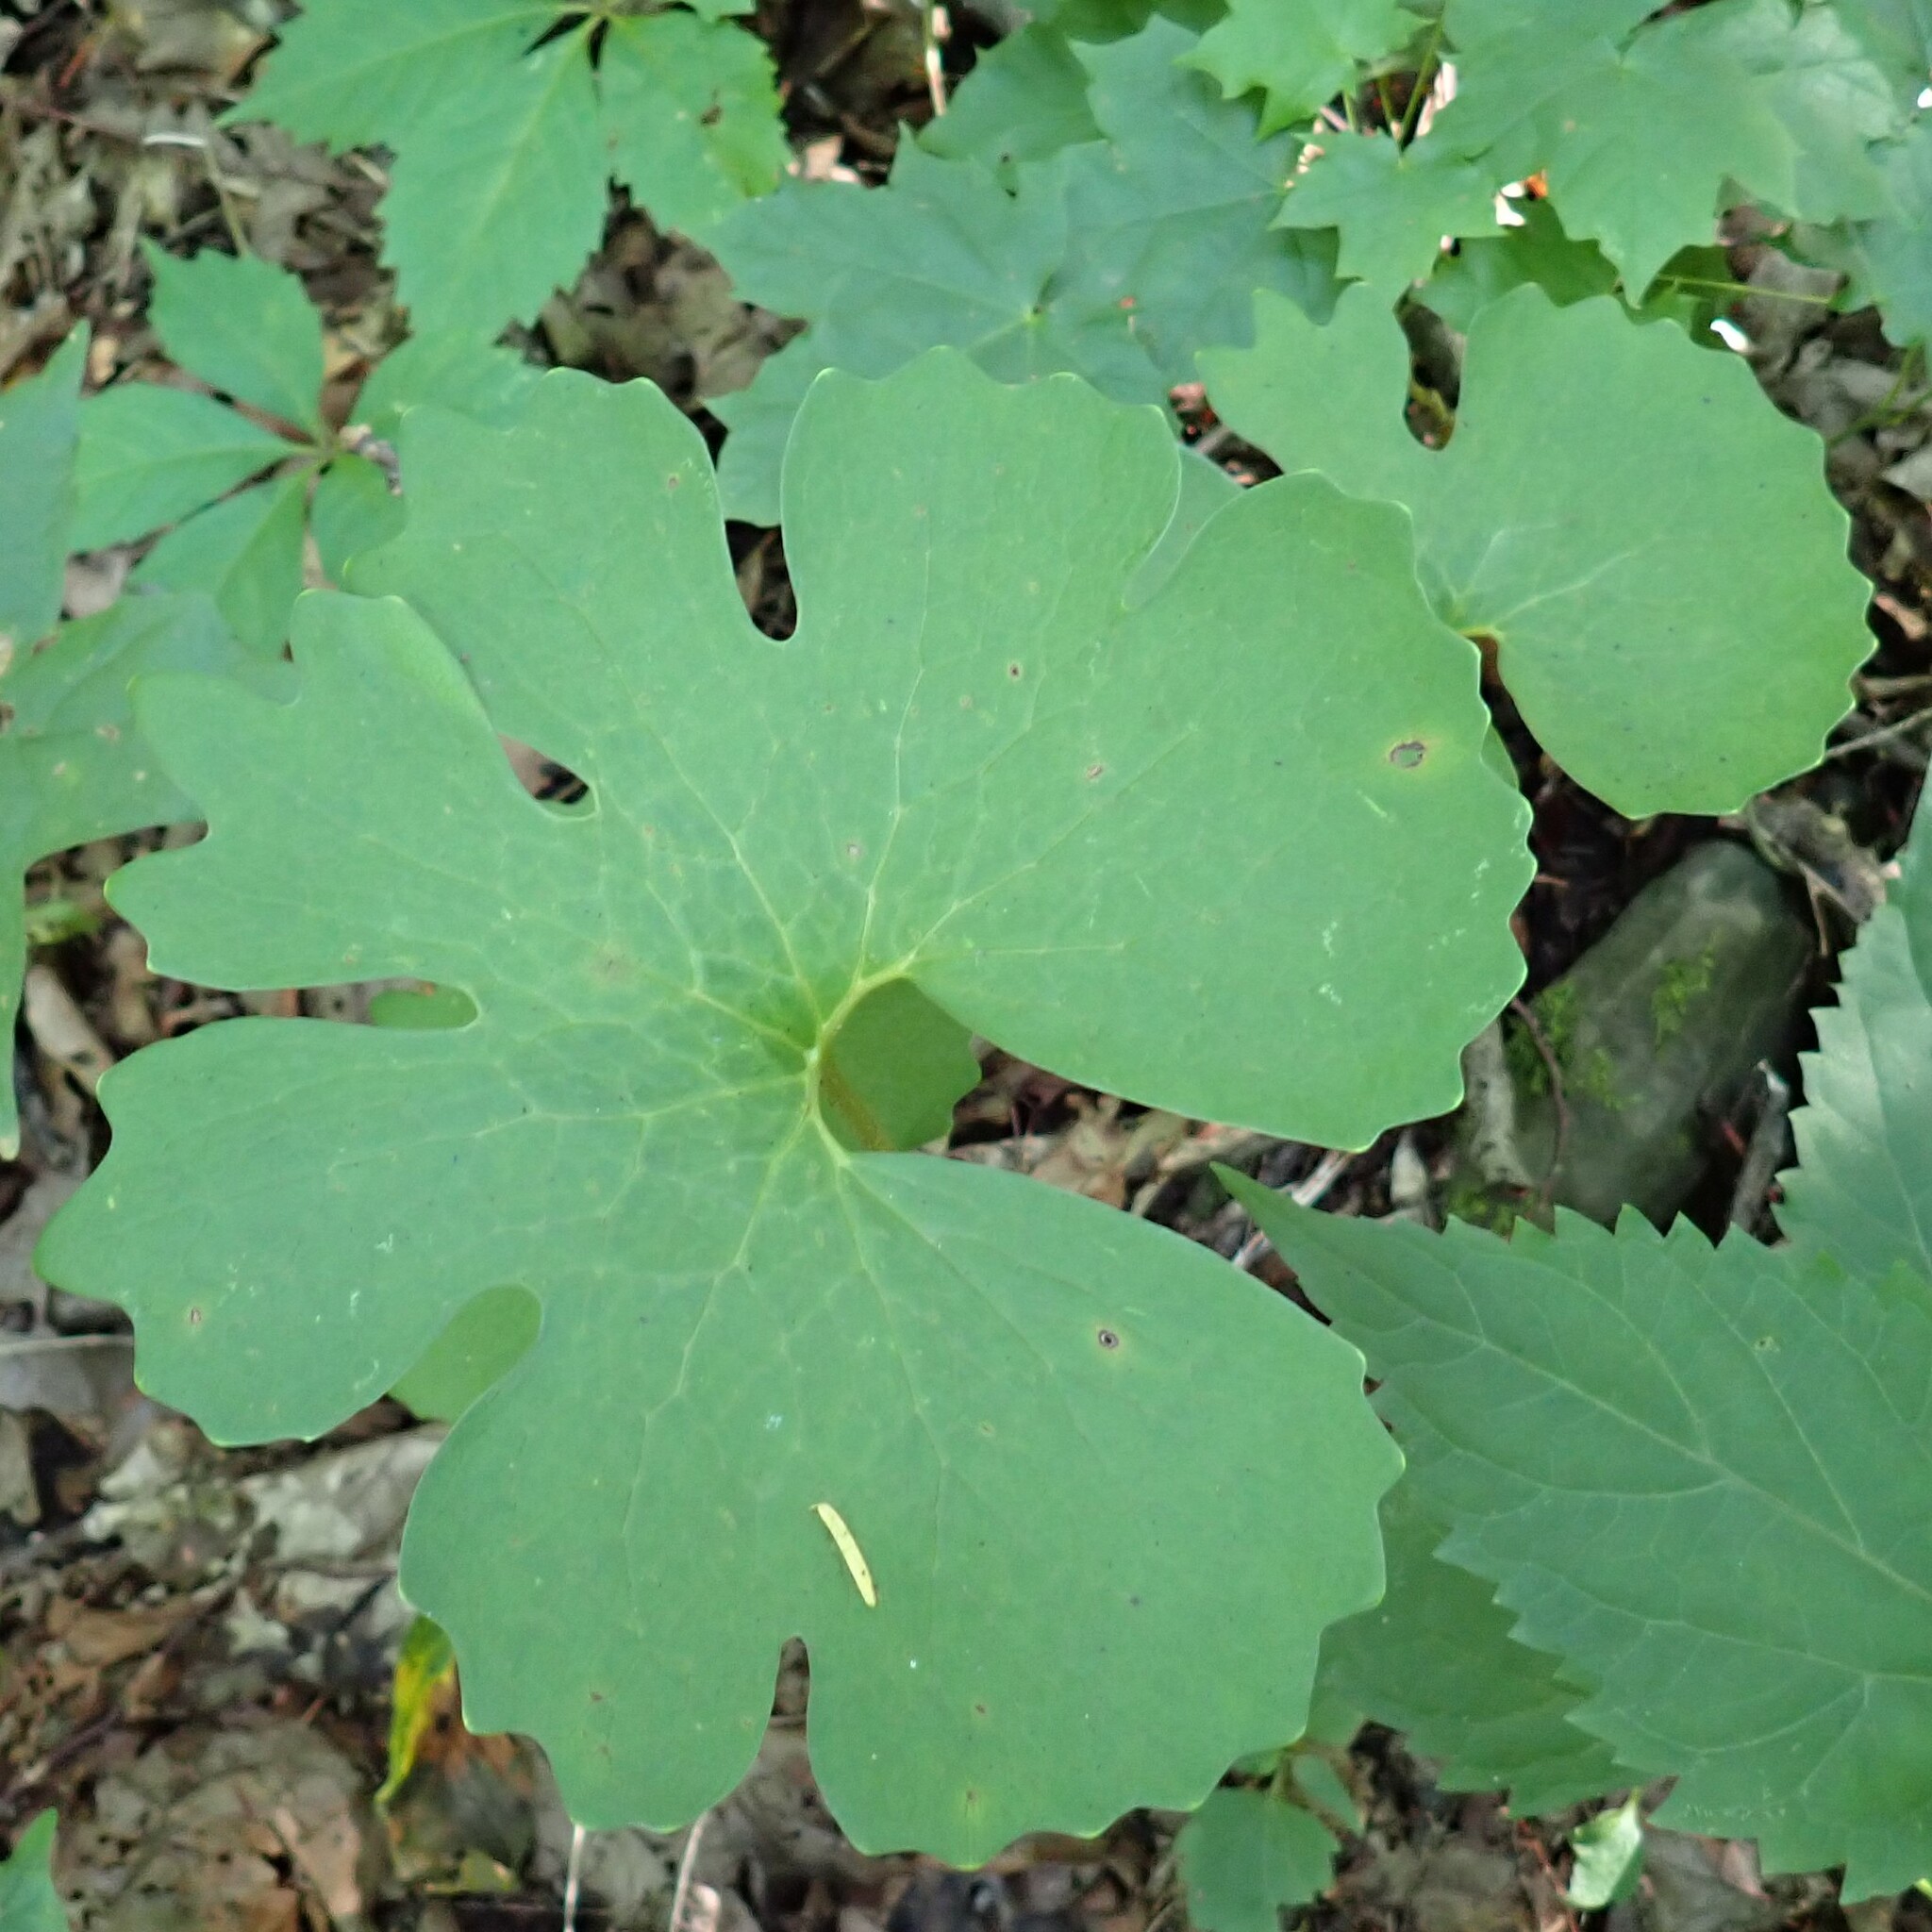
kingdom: Plantae
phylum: Tracheophyta
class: Magnoliopsida
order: Ranunculales
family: Papaveraceae
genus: Sanguinaria
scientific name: Sanguinaria canadensis
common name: Bloodroot
